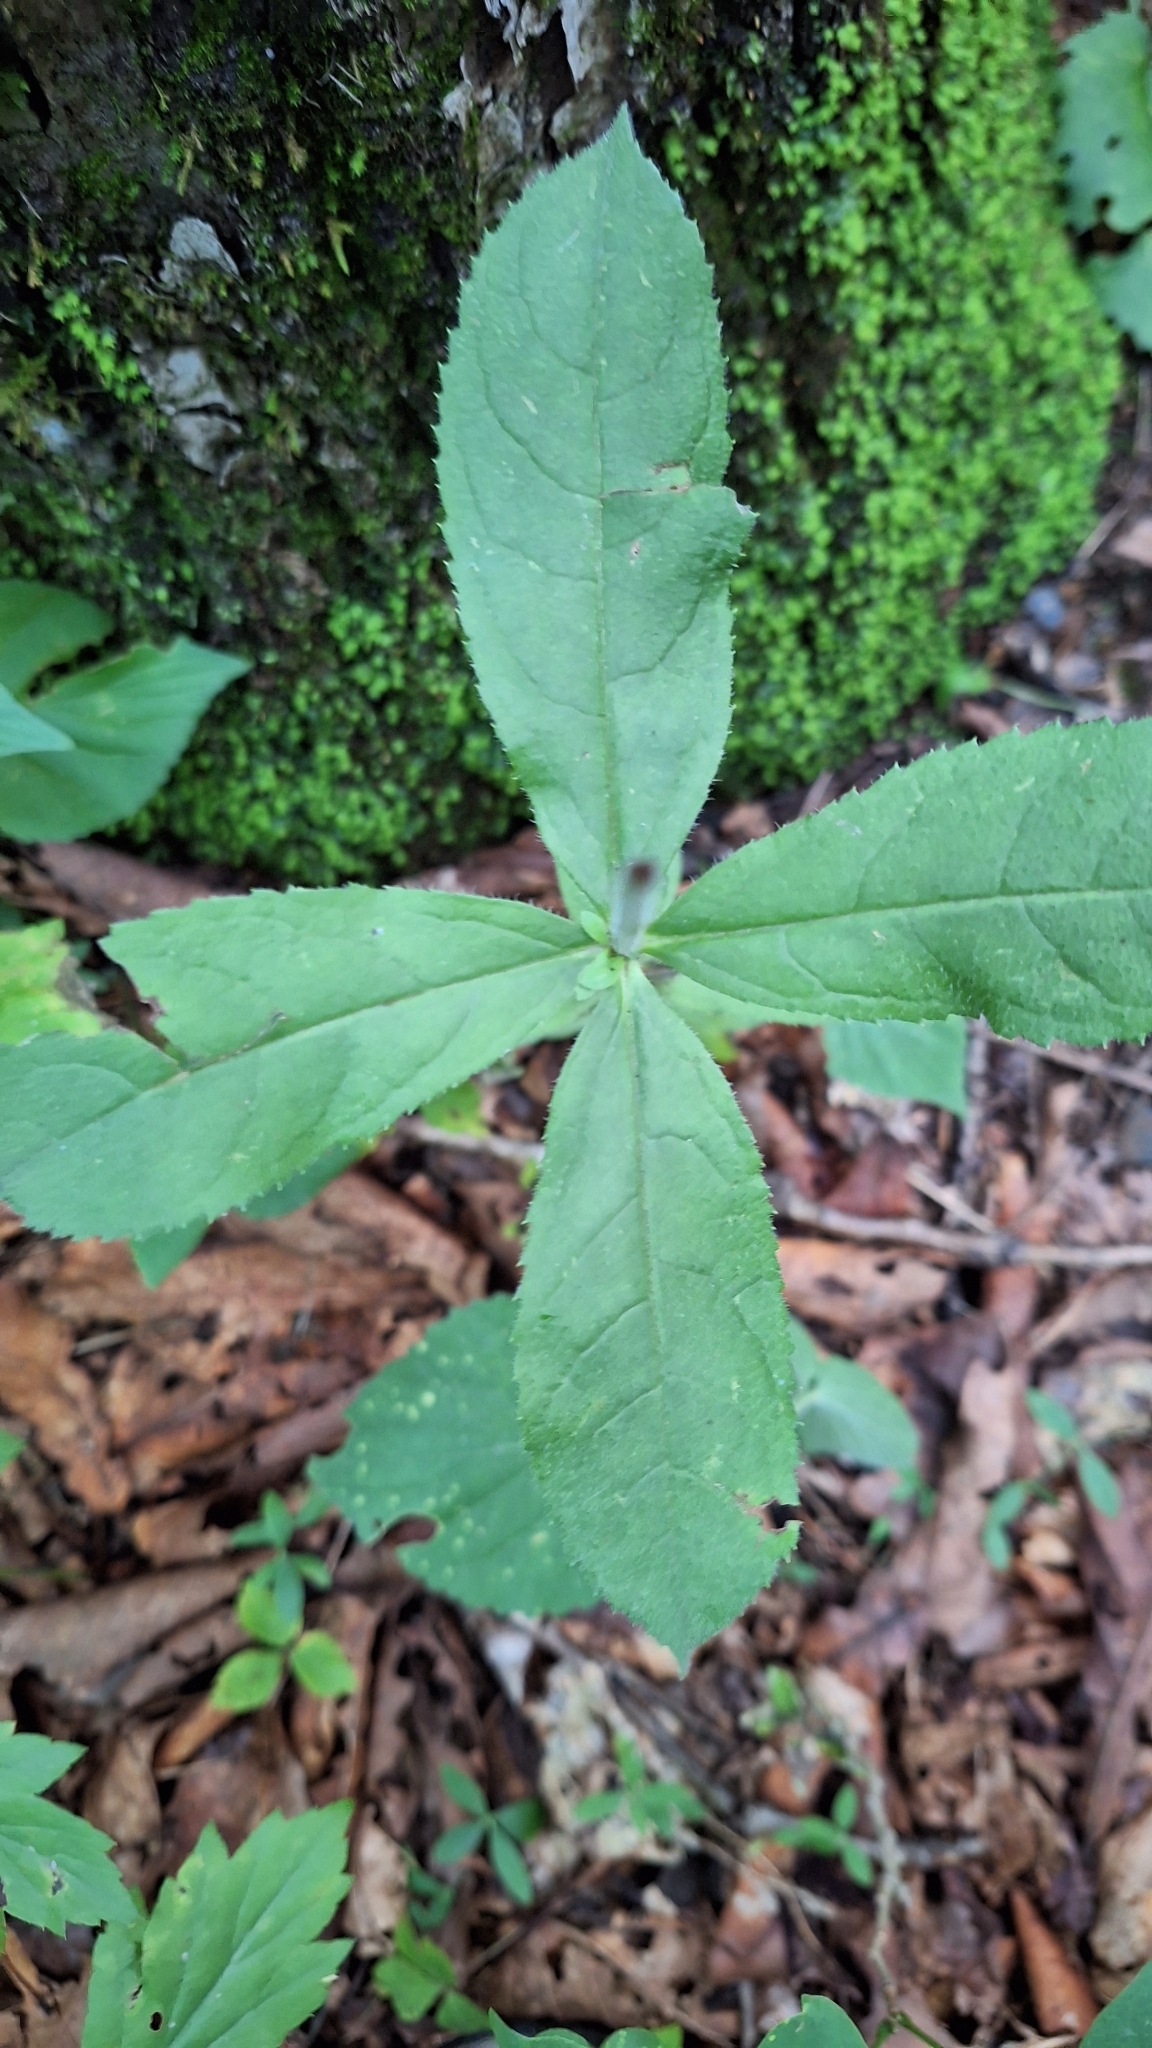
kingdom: Plantae
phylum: Tracheophyta
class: Magnoliopsida
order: Lamiales
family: Plantaginaceae
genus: Veronicastrum
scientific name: Veronicastrum sibiricum
